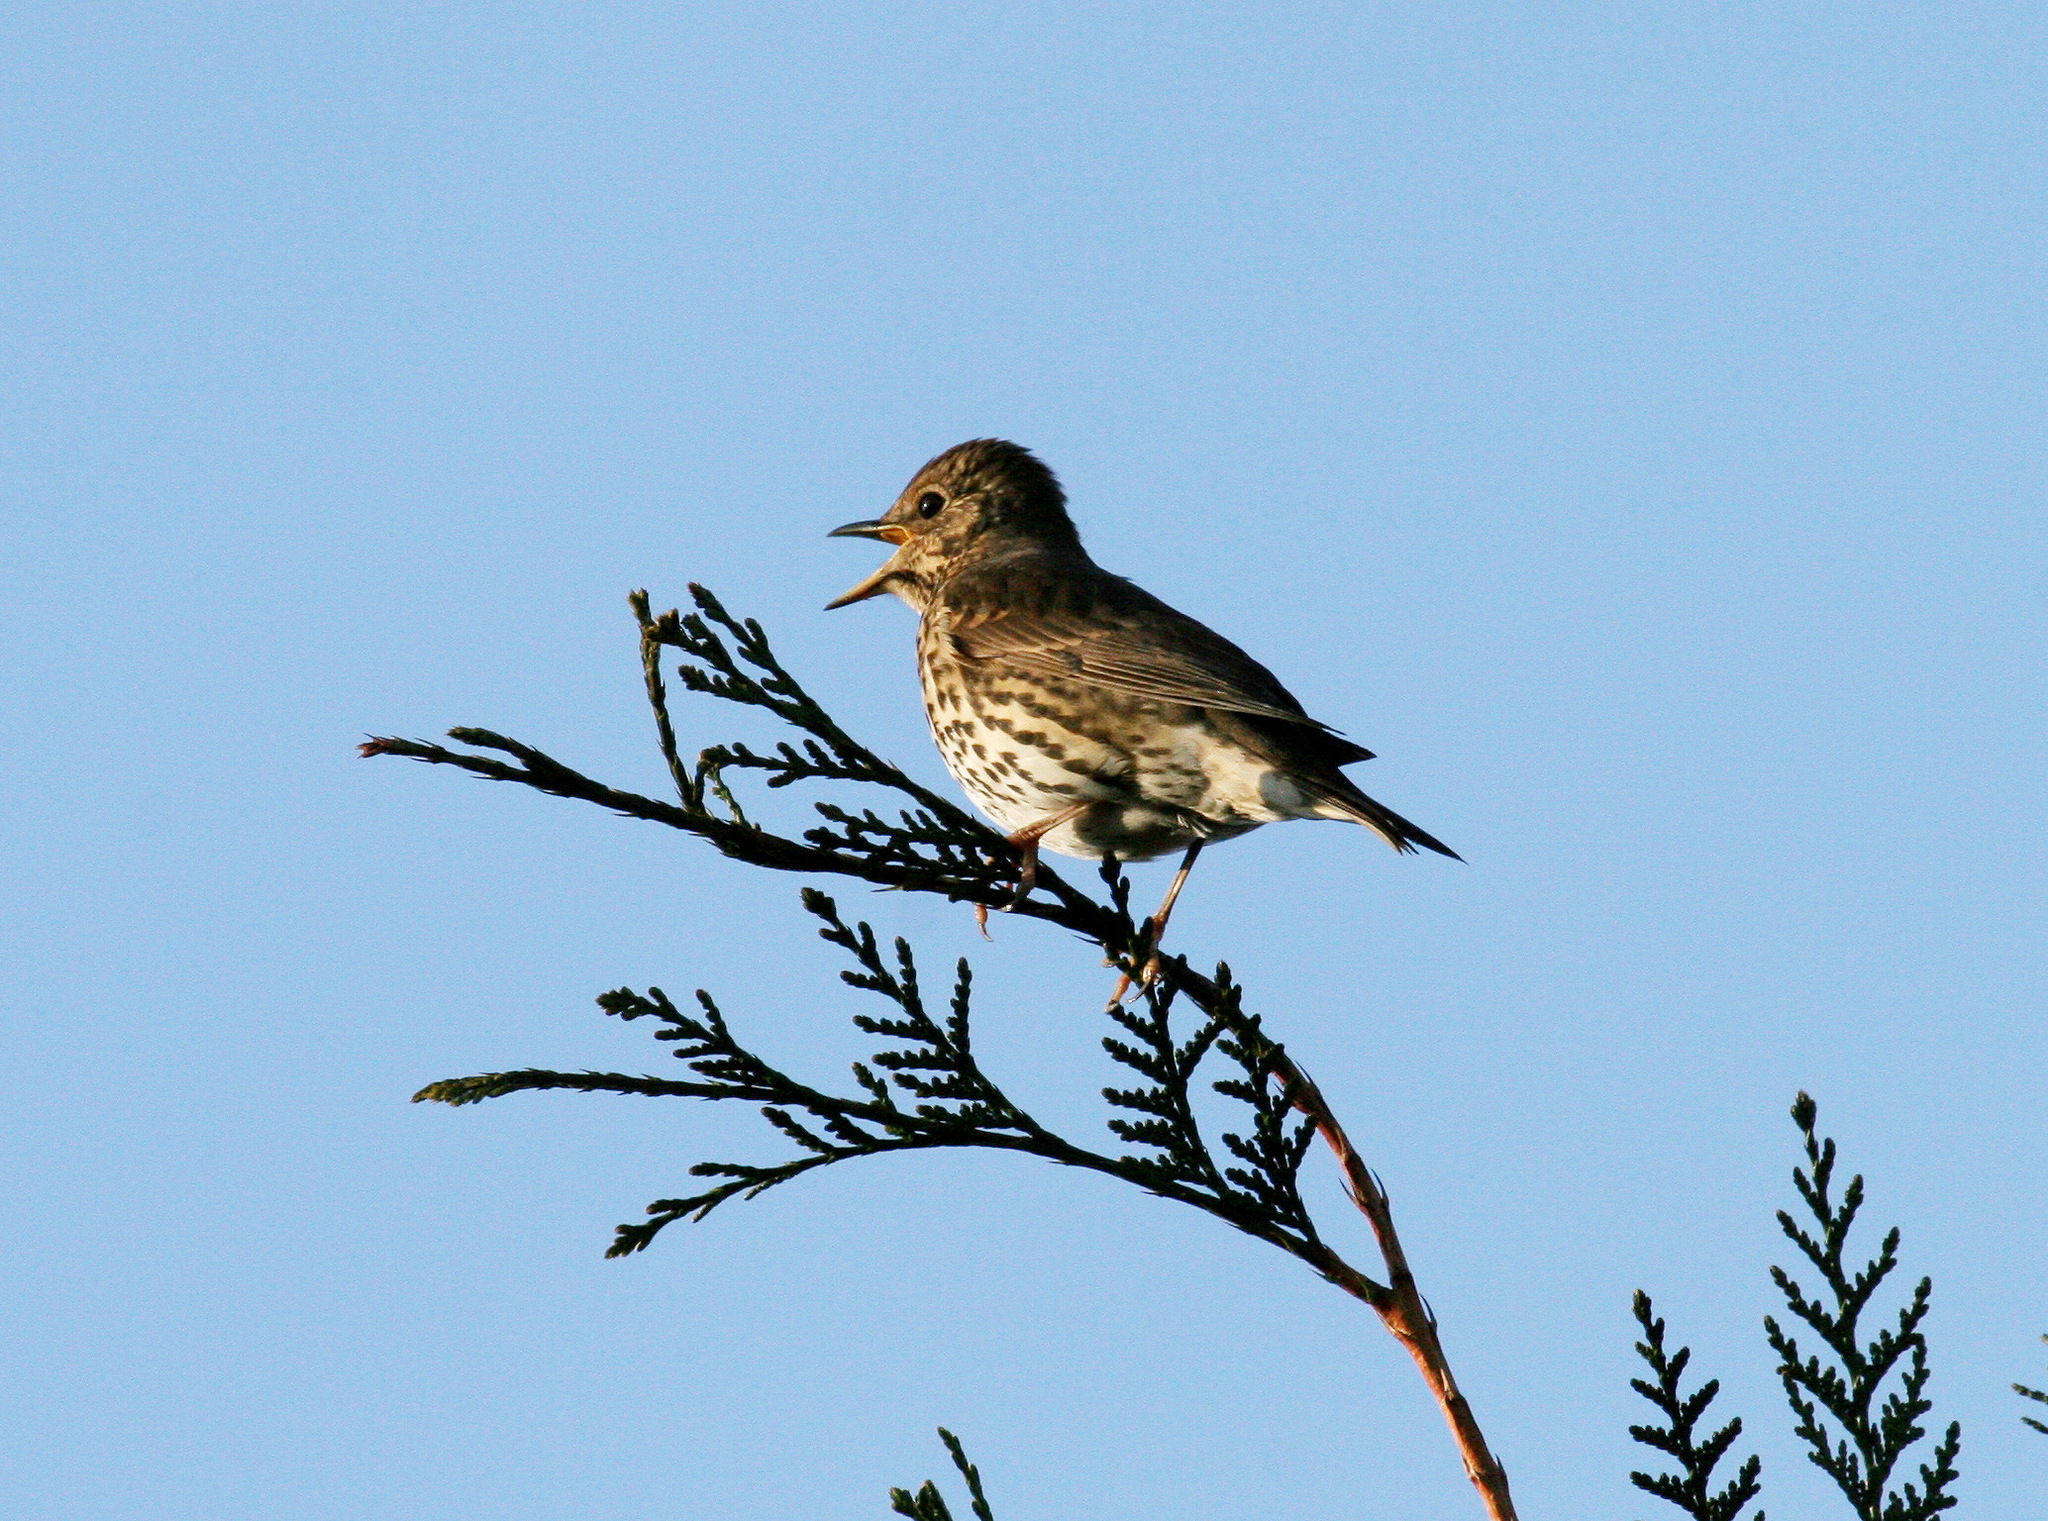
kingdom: Animalia
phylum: Chordata
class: Aves
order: Passeriformes
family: Turdidae
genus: Turdus
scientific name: Turdus philomelos
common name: Song thrush
